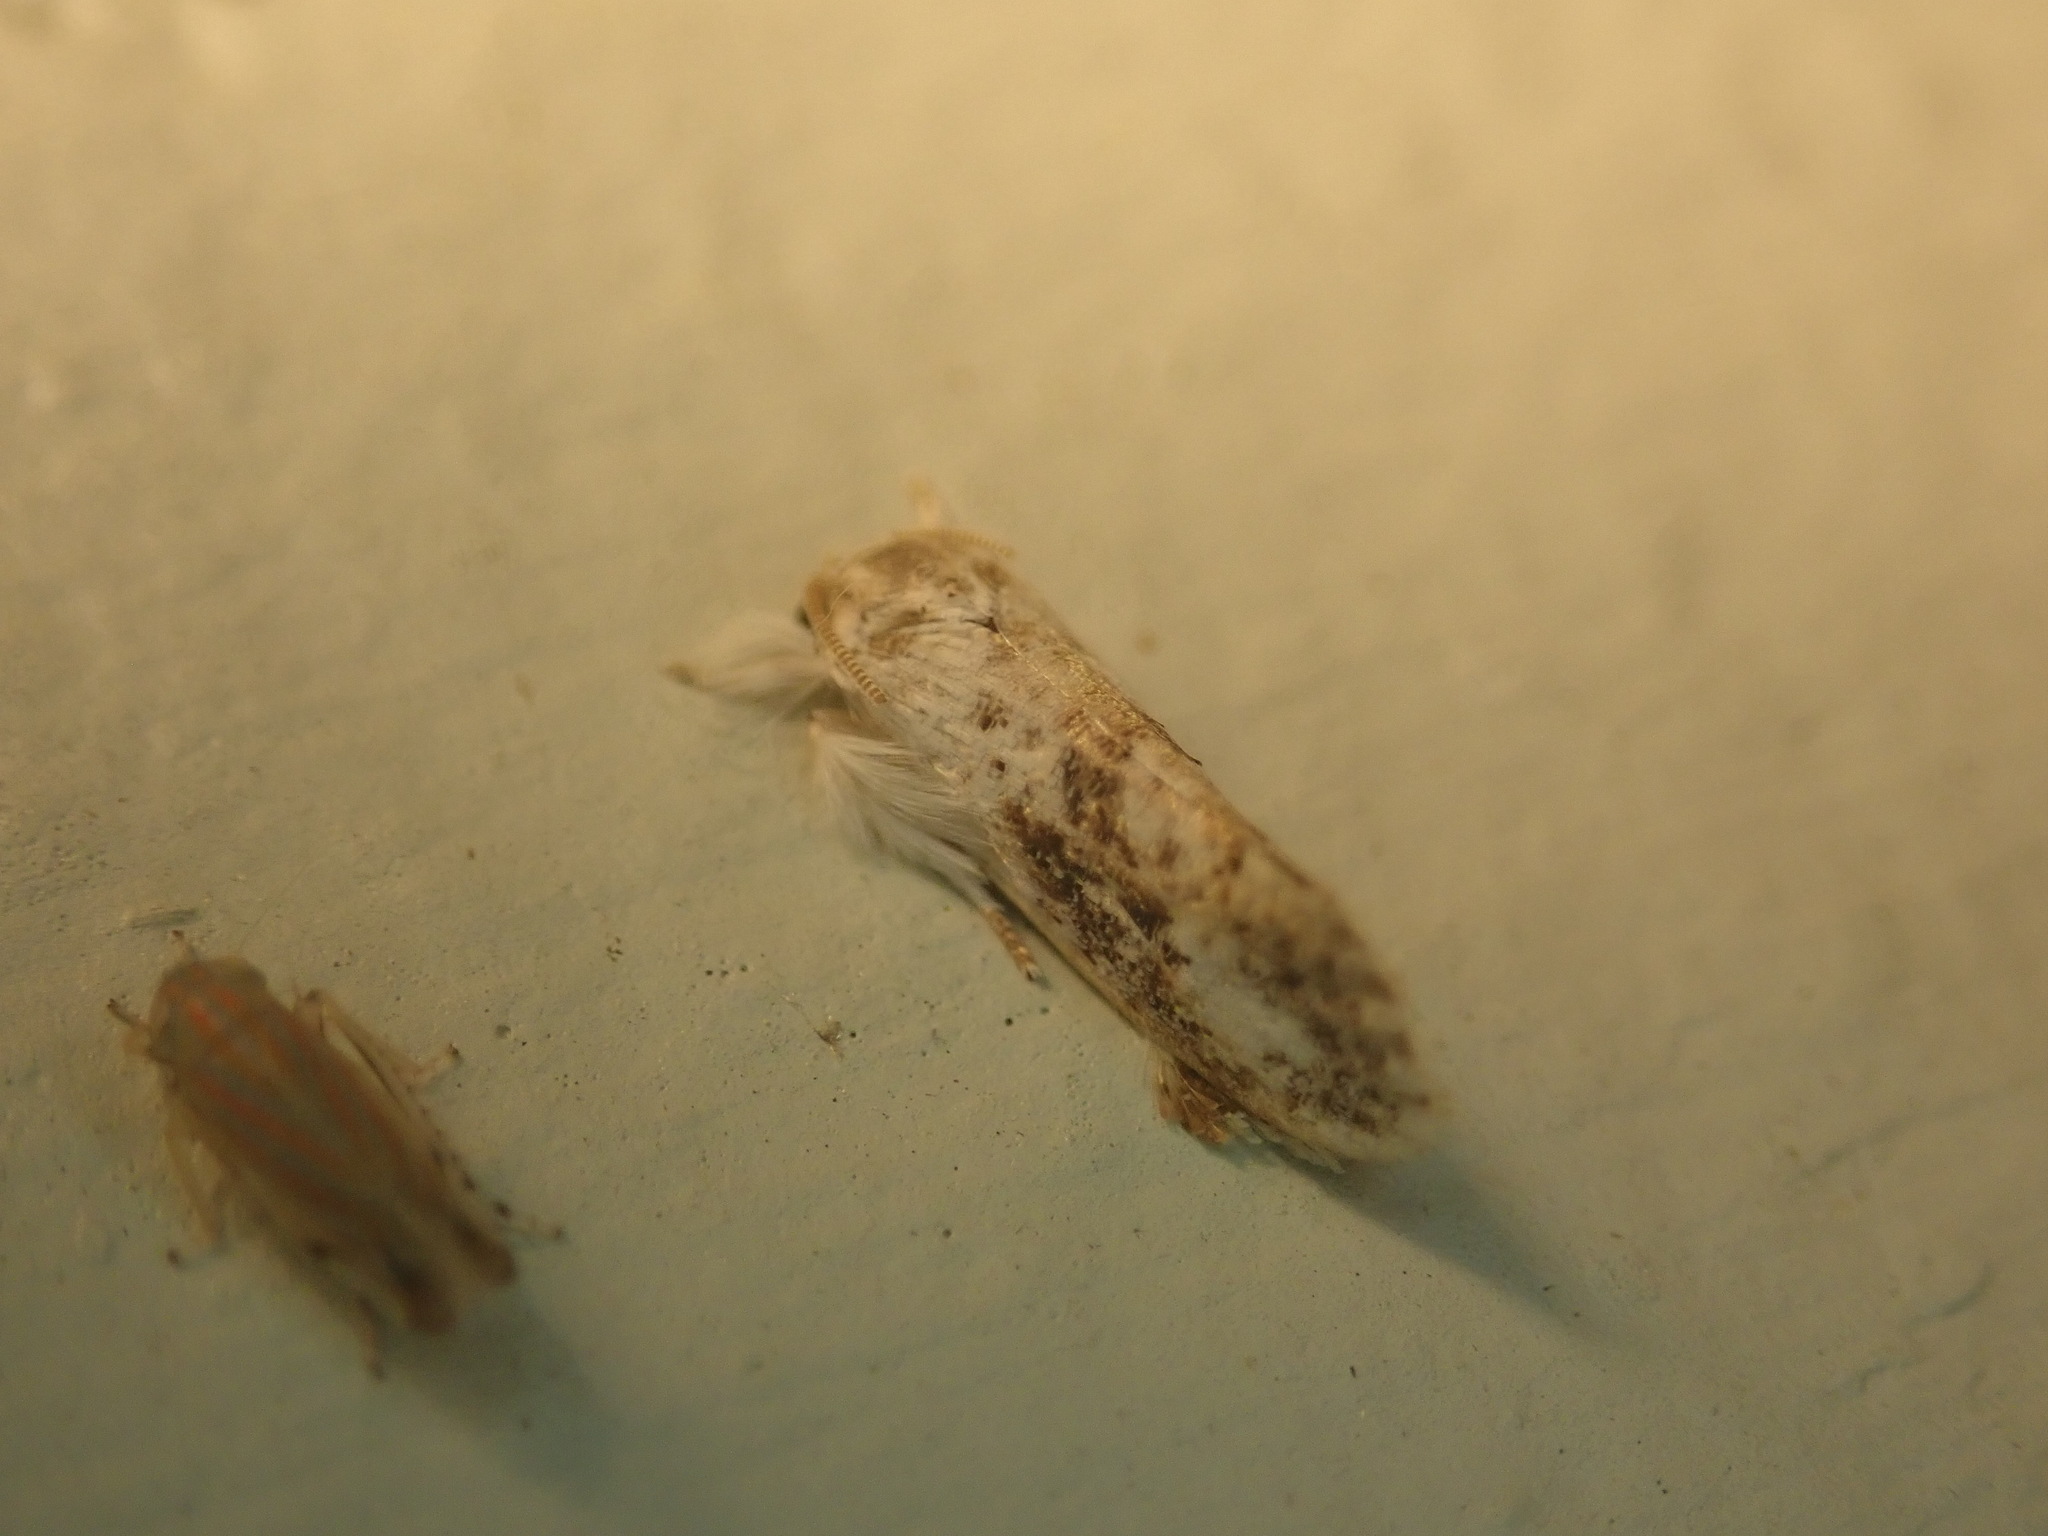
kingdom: Animalia
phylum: Arthropoda
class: Insecta
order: Lepidoptera
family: Tineidae
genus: Acrolophus
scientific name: Acrolophus mycetophagus
